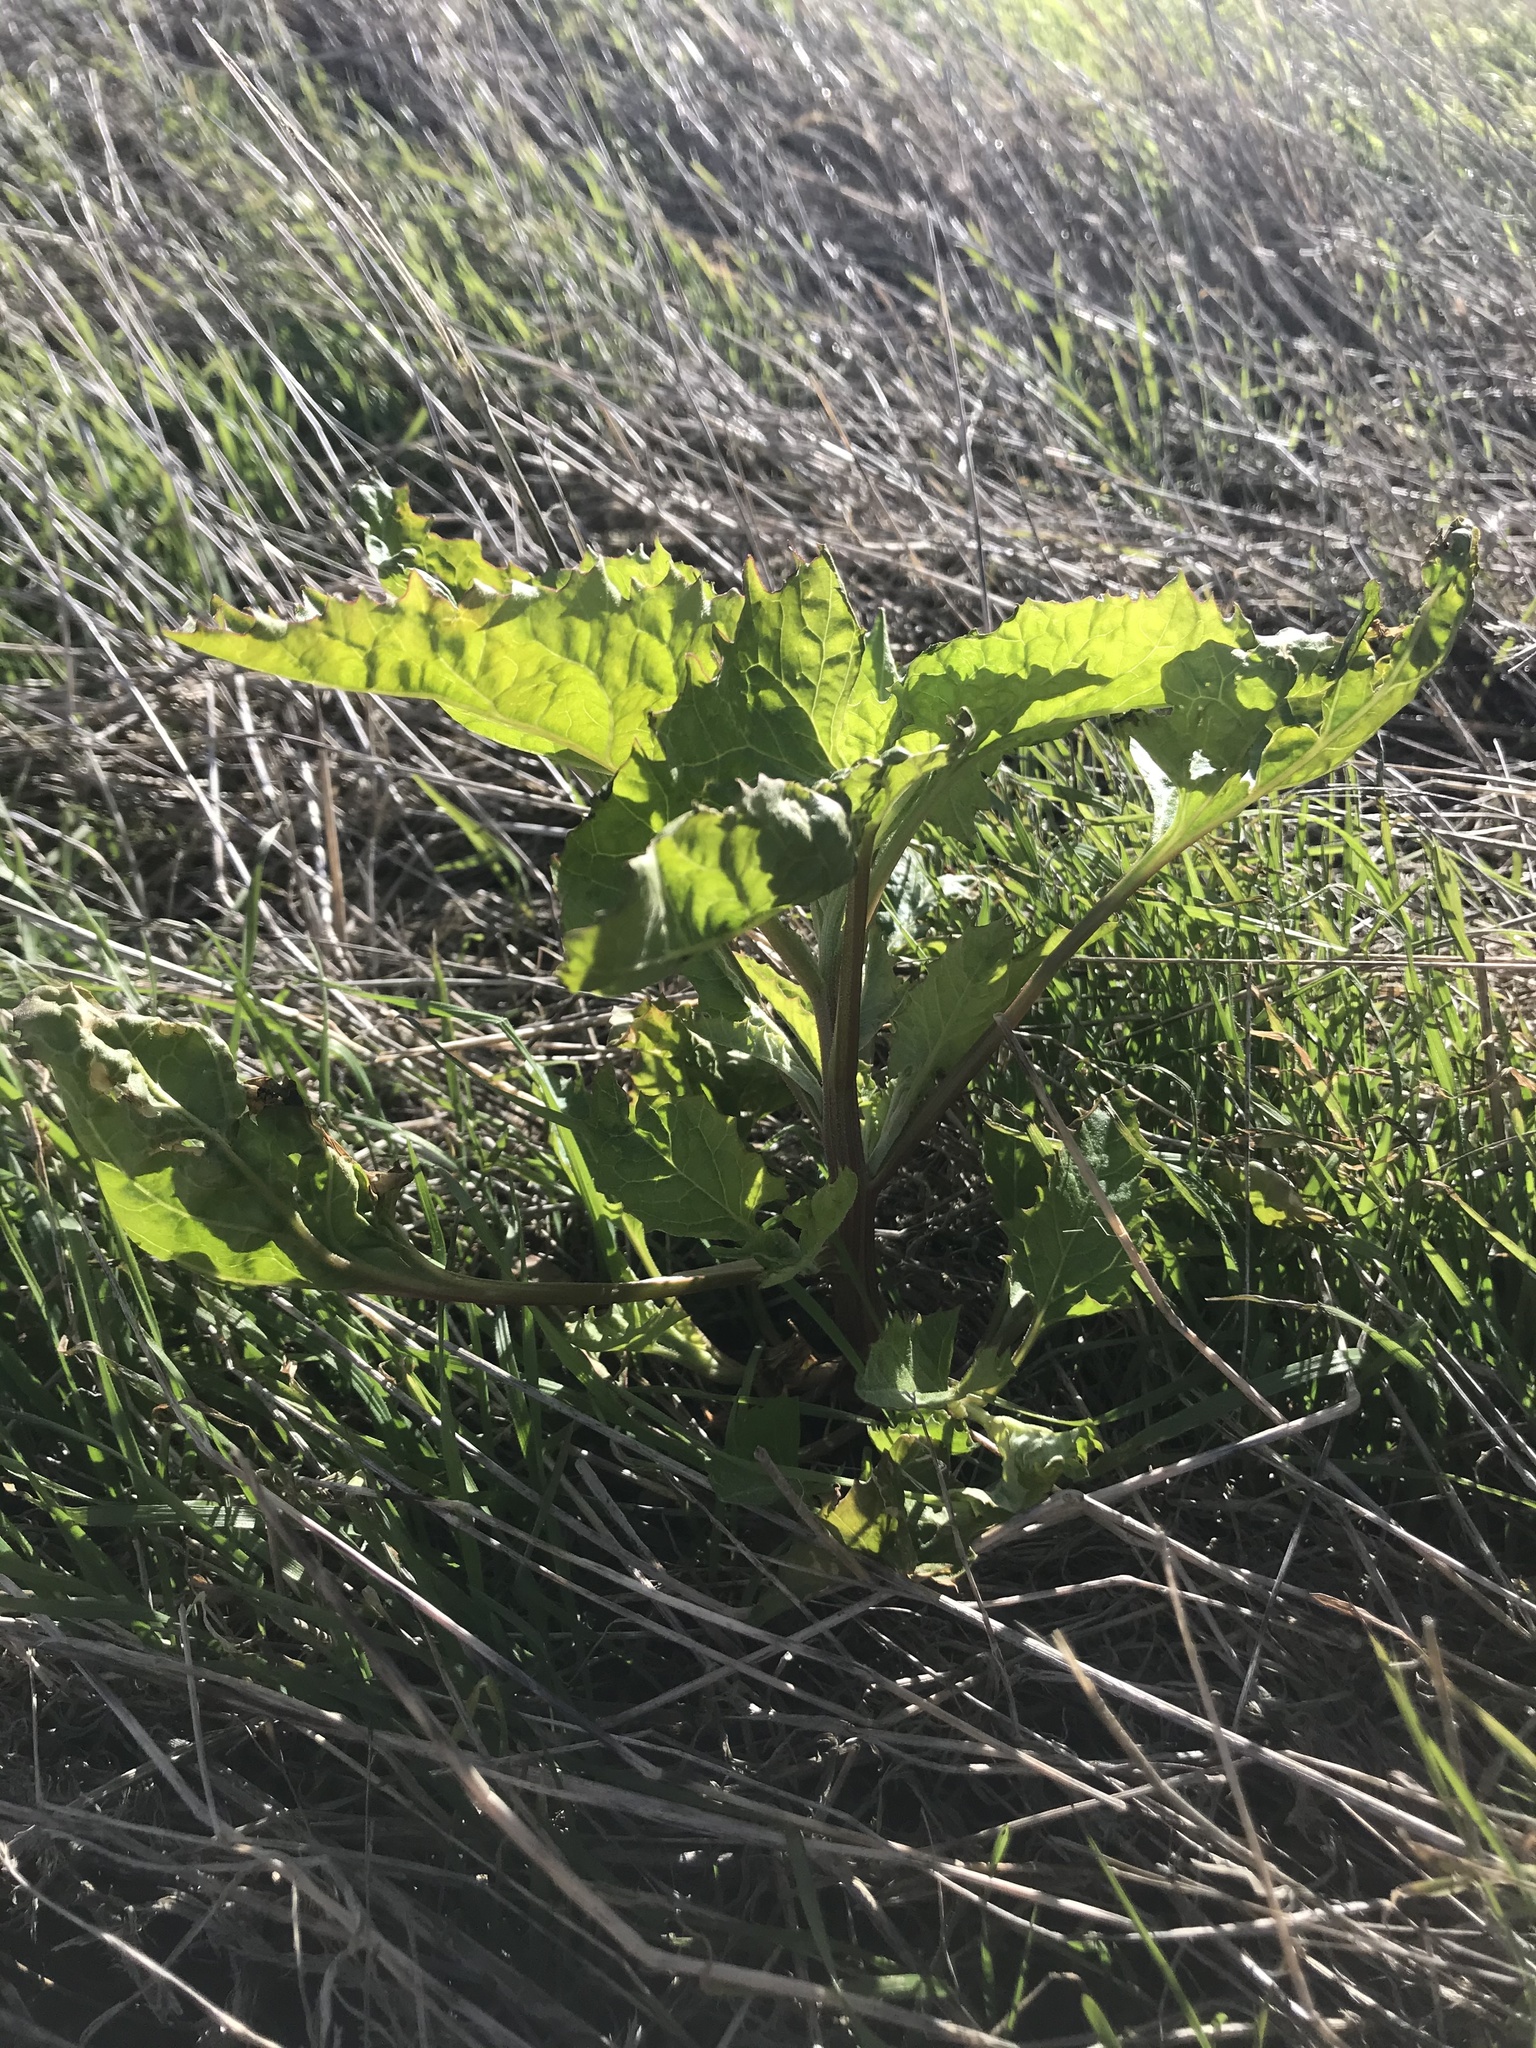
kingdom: Plantae
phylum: Tracheophyta
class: Magnoliopsida
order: Caryophyllales
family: Amaranthaceae
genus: Blitum
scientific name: Blitum californicum
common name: California goosefoot
